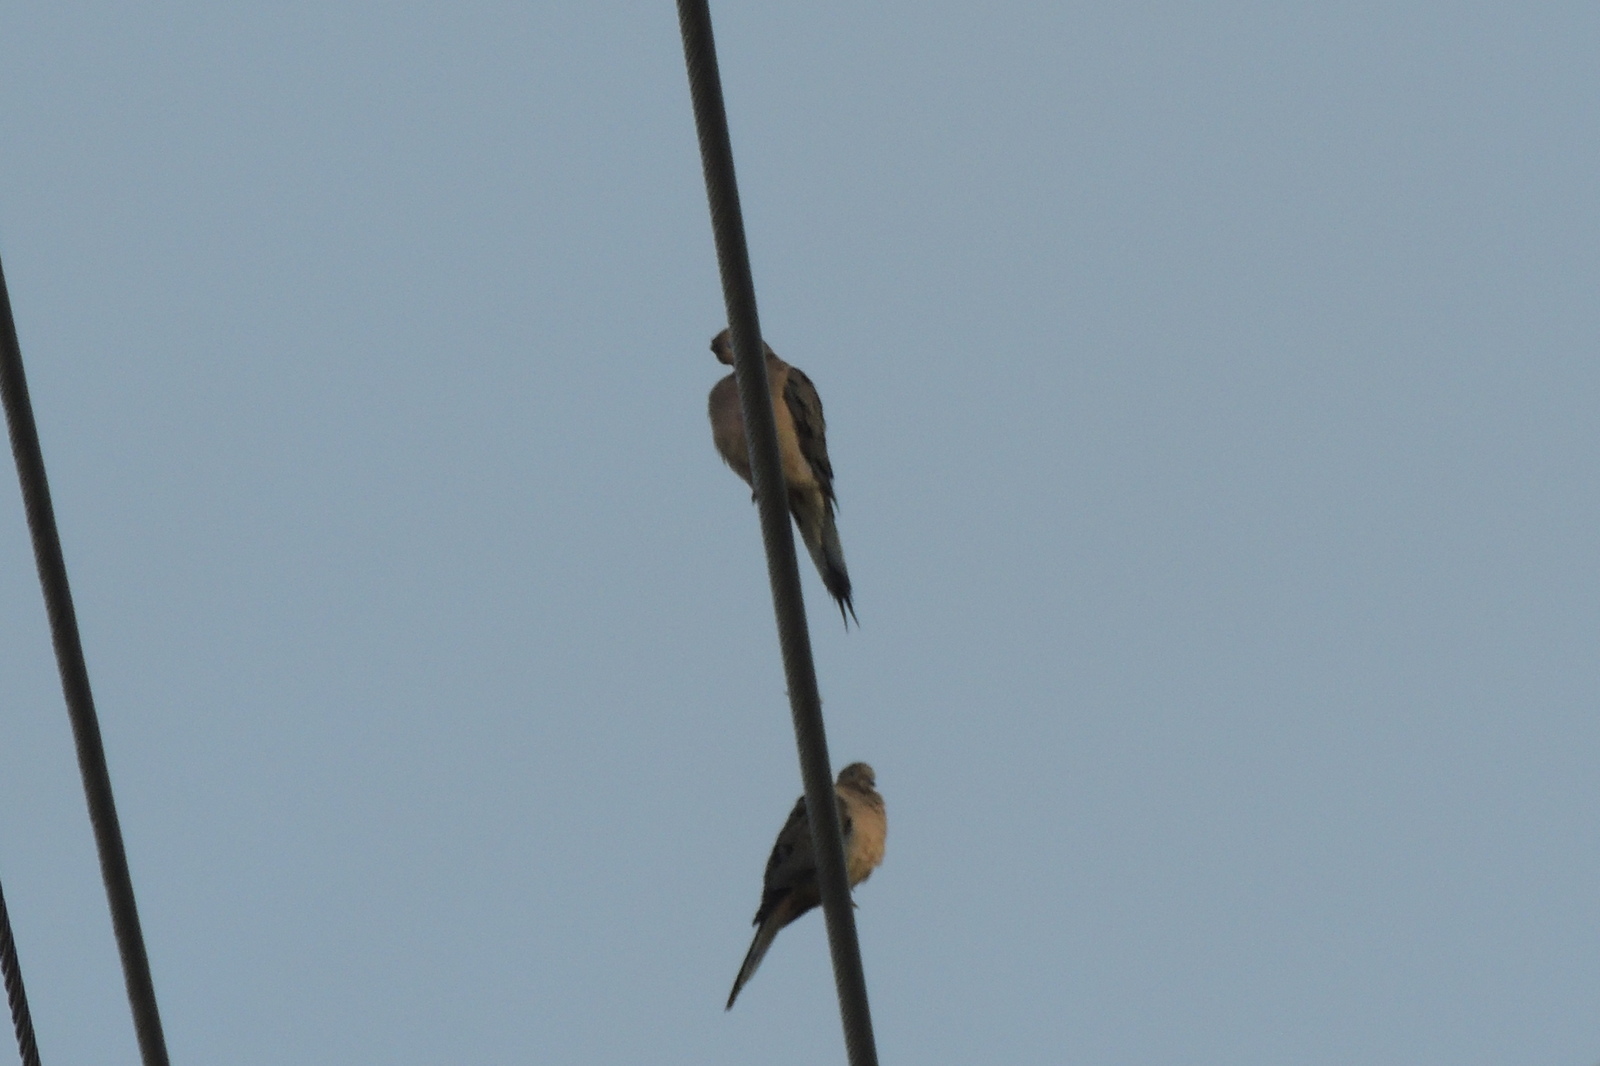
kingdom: Animalia
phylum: Chordata
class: Aves
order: Columbiformes
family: Columbidae
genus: Zenaida
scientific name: Zenaida macroura
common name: Mourning dove
